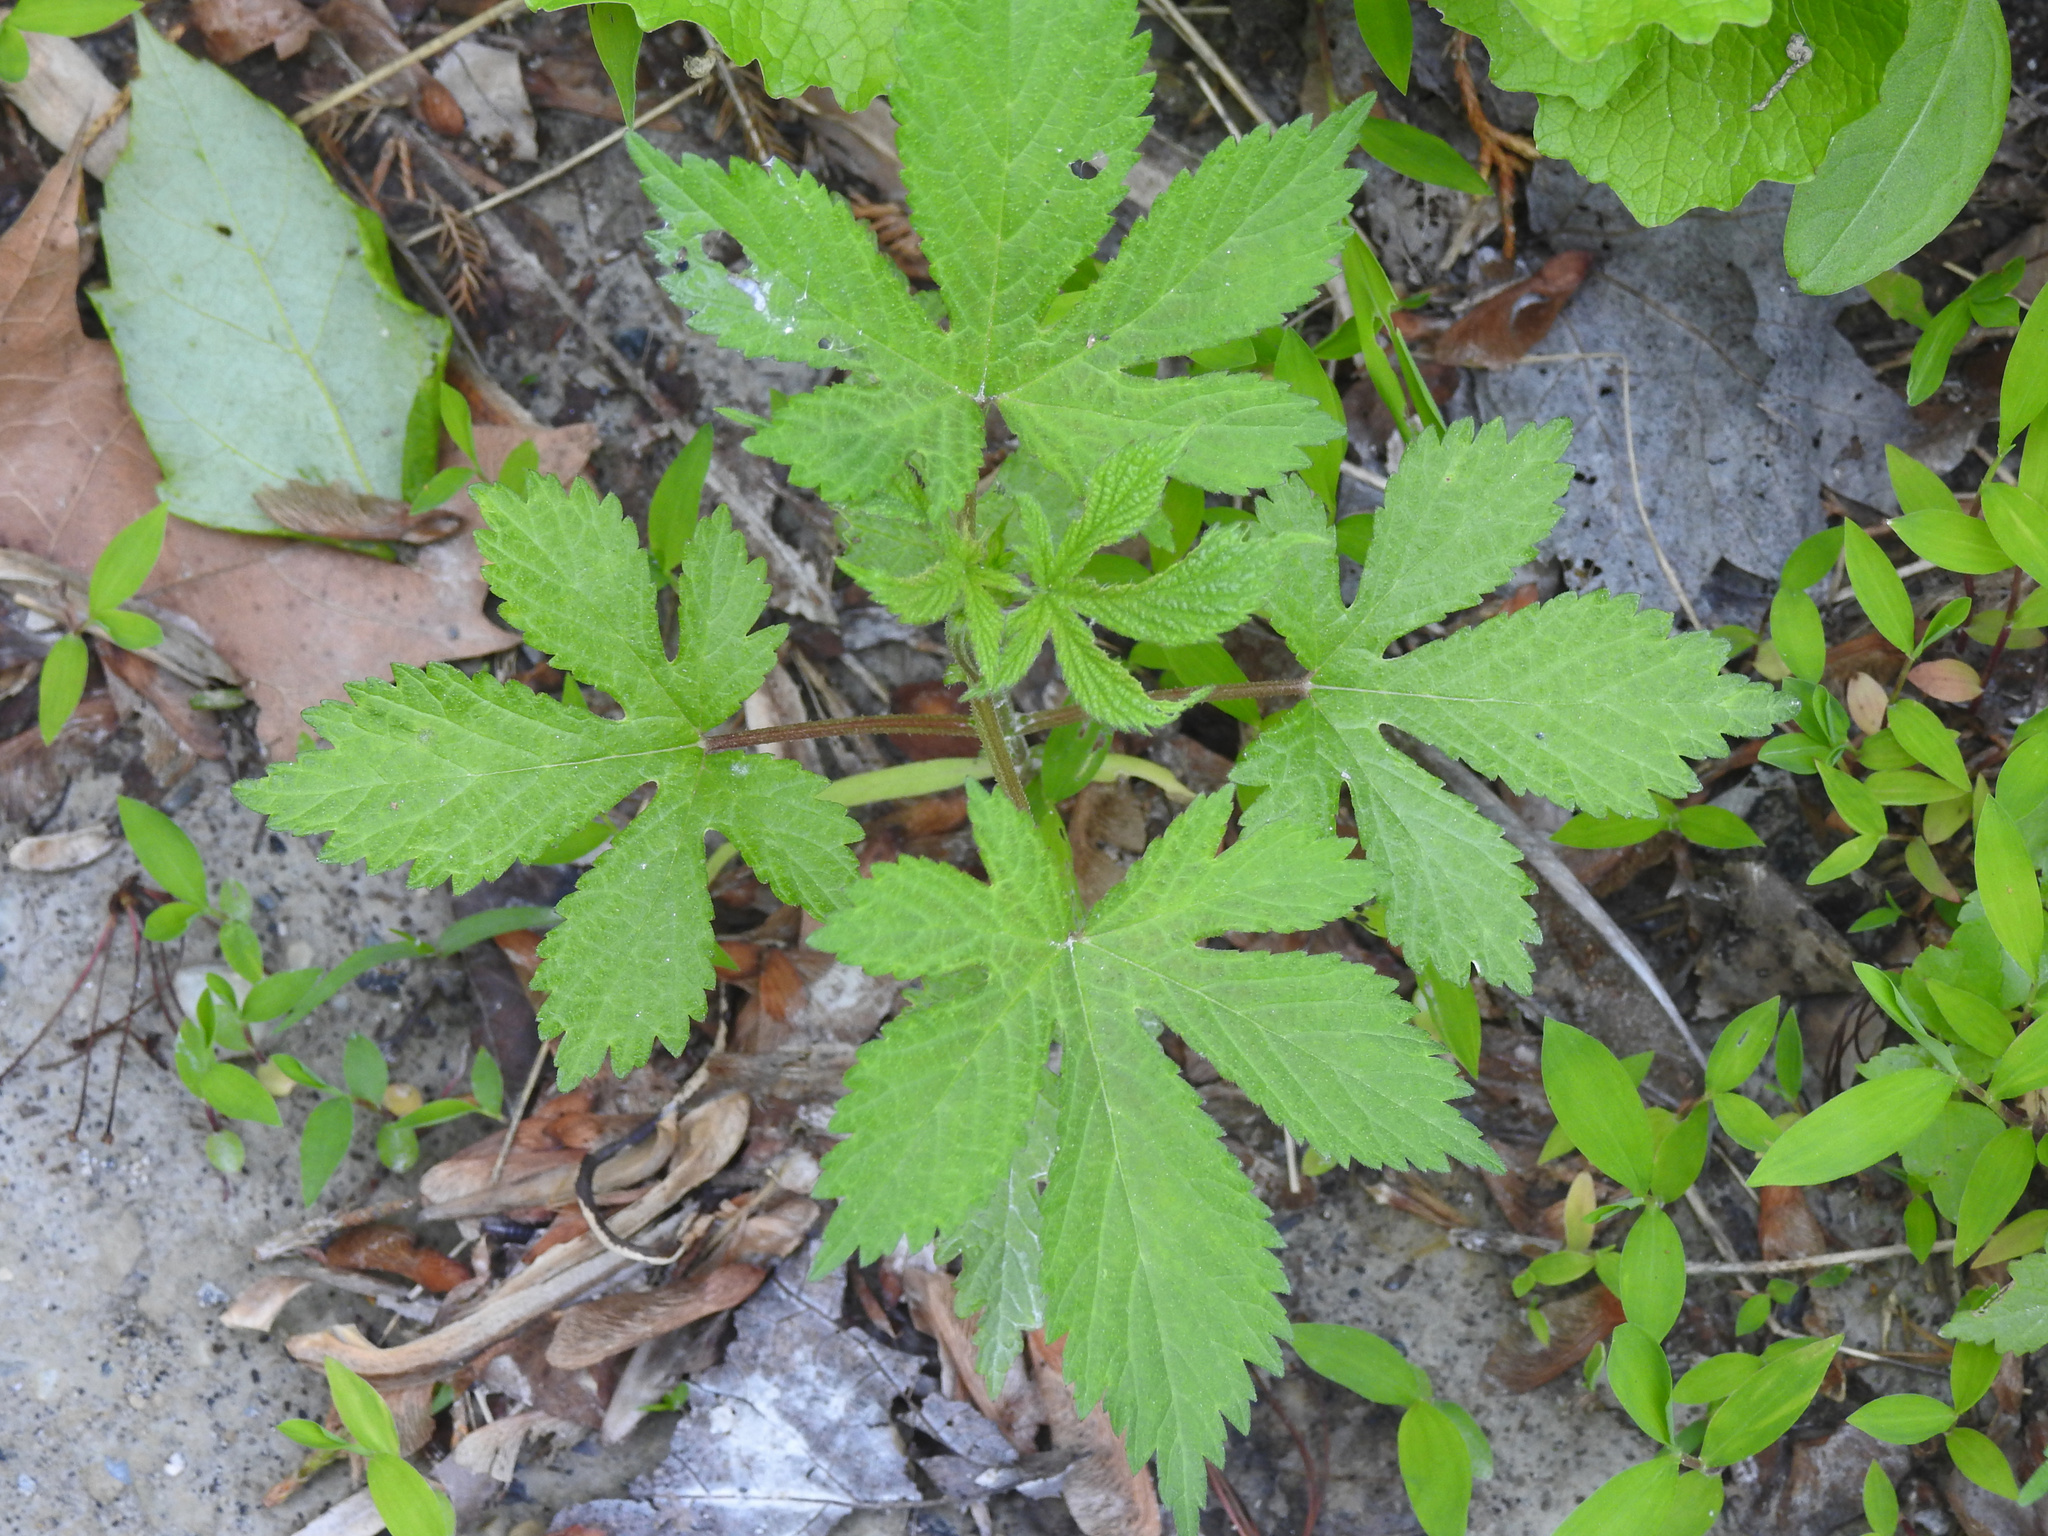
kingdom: Plantae
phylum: Tracheophyta
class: Magnoliopsida
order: Rosales
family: Cannabaceae
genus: Humulus
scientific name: Humulus scandens
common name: Japanese hop
